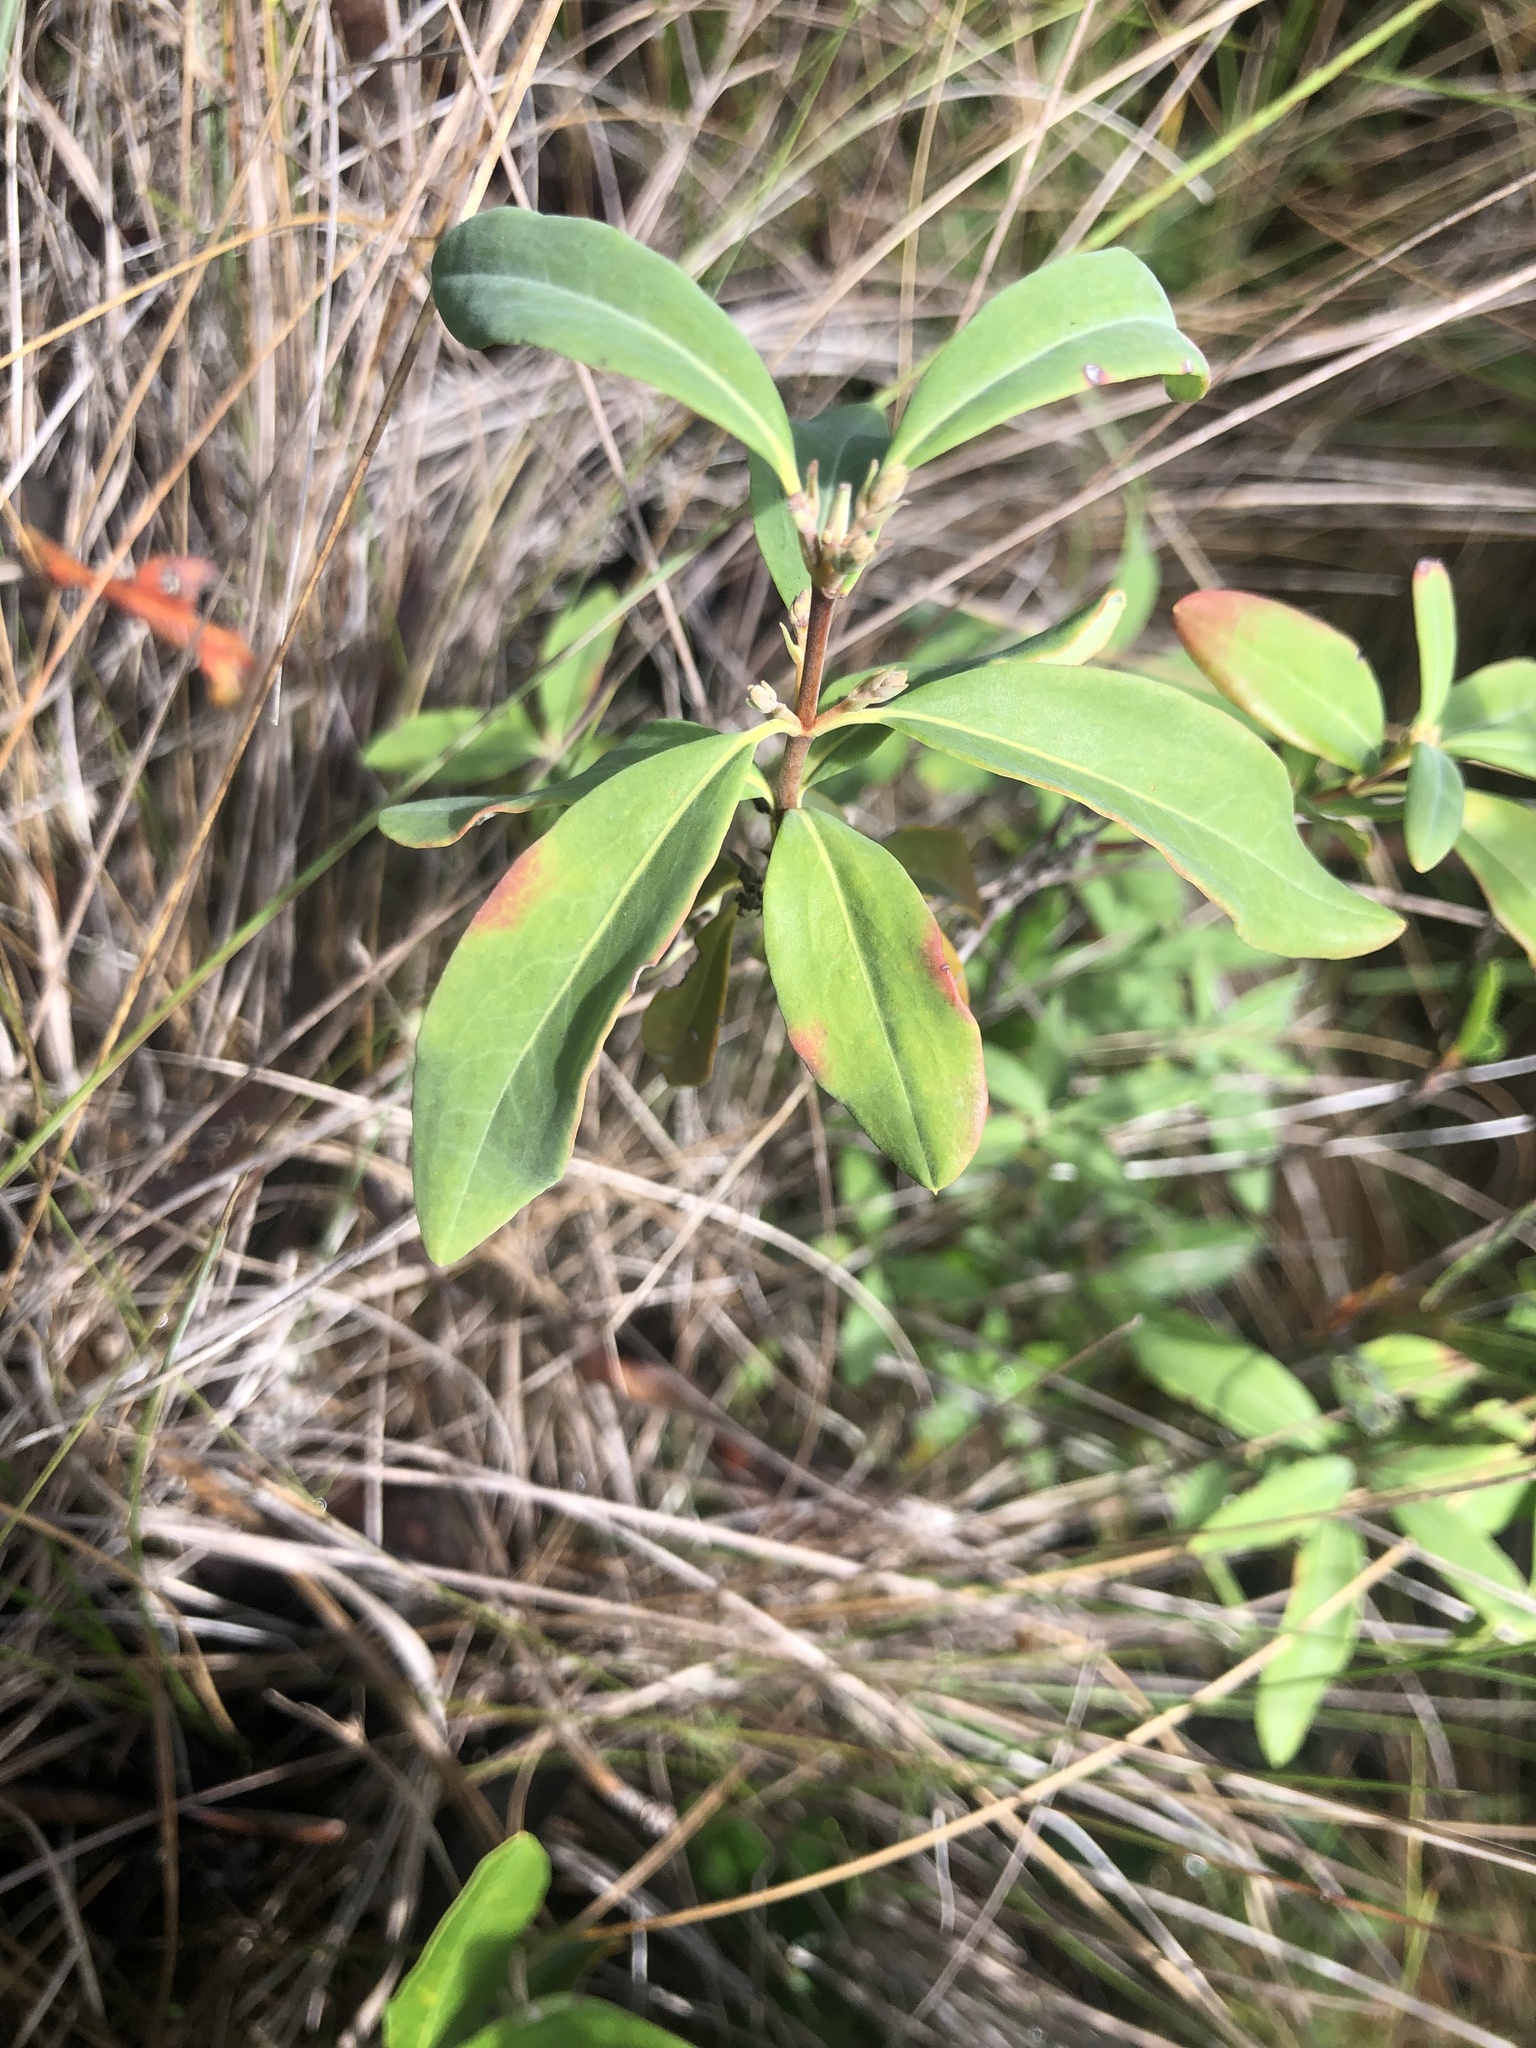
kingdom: Plantae
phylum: Tracheophyta
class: Magnoliopsida
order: Ericales
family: Ericaceae
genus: Kalmia
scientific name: Kalmia angustifolia
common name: Sheep-laurel
